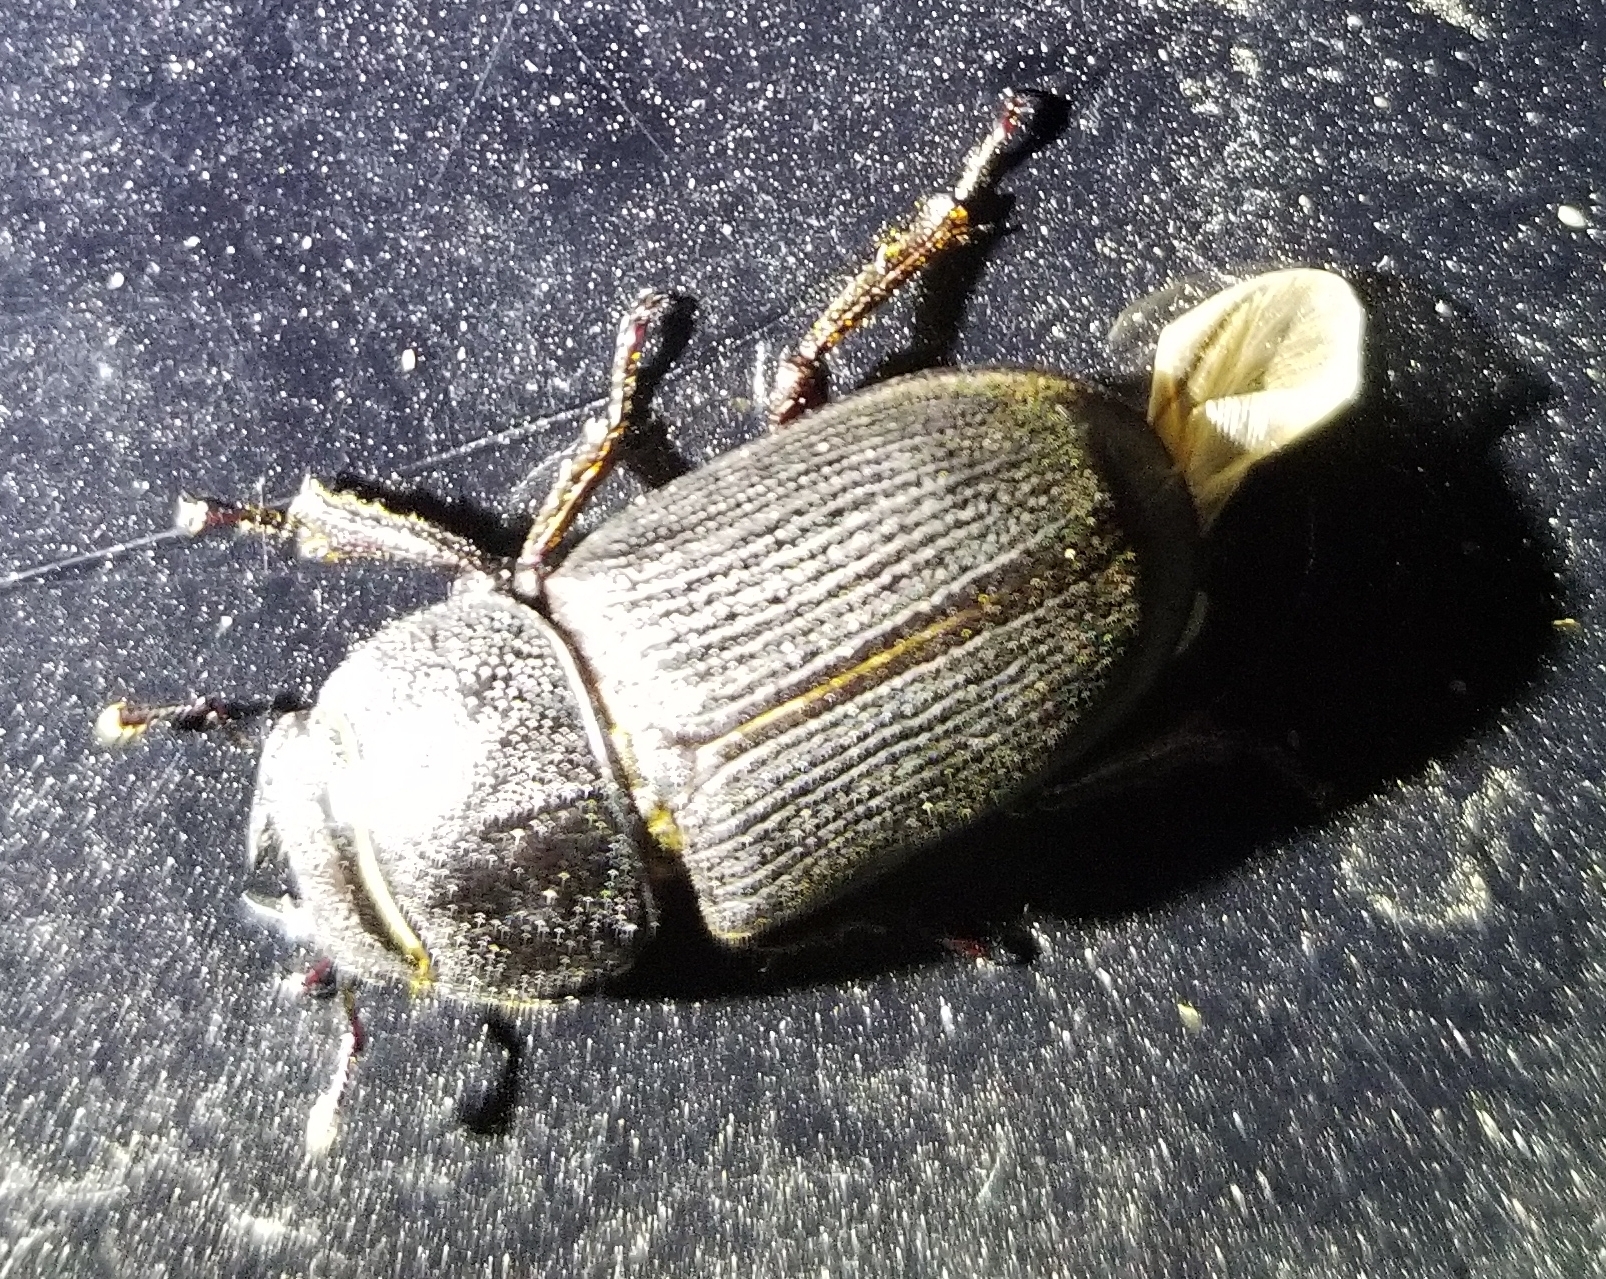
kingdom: Animalia
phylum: Arthropoda
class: Insecta
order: Coleoptera
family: Lucanidae
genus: Dorcus
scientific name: Dorcus parallelus
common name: Antelope beetle
